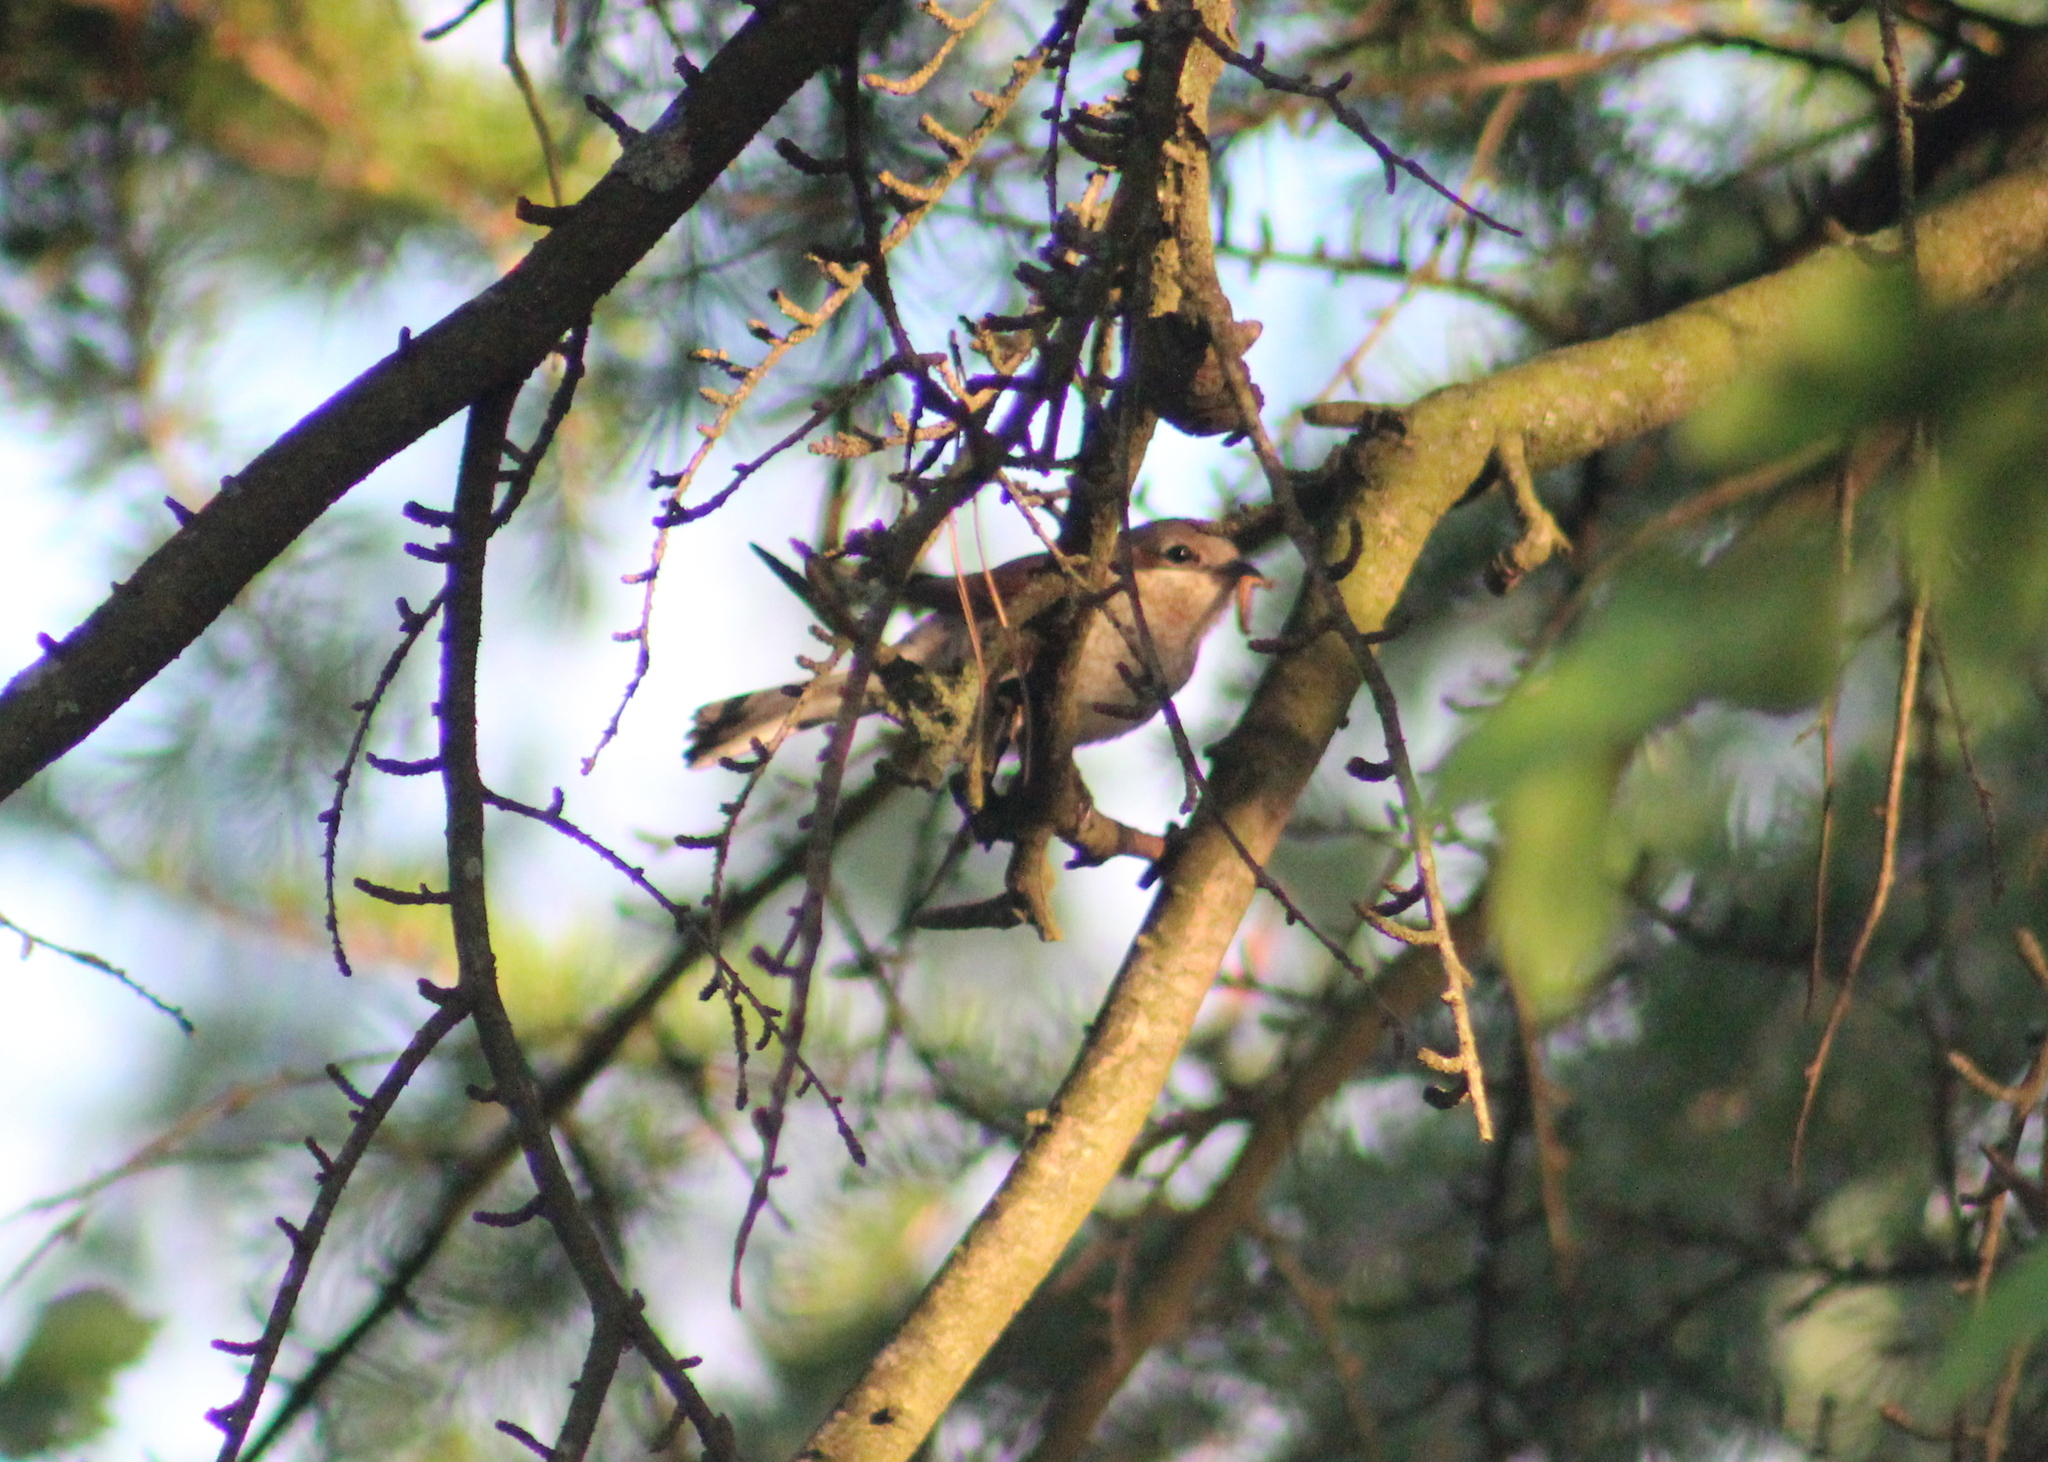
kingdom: Animalia
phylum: Chordata
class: Aves
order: Passeriformes
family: Laniidae
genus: Lanius
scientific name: Lanius collurio
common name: Red-backed shrike
